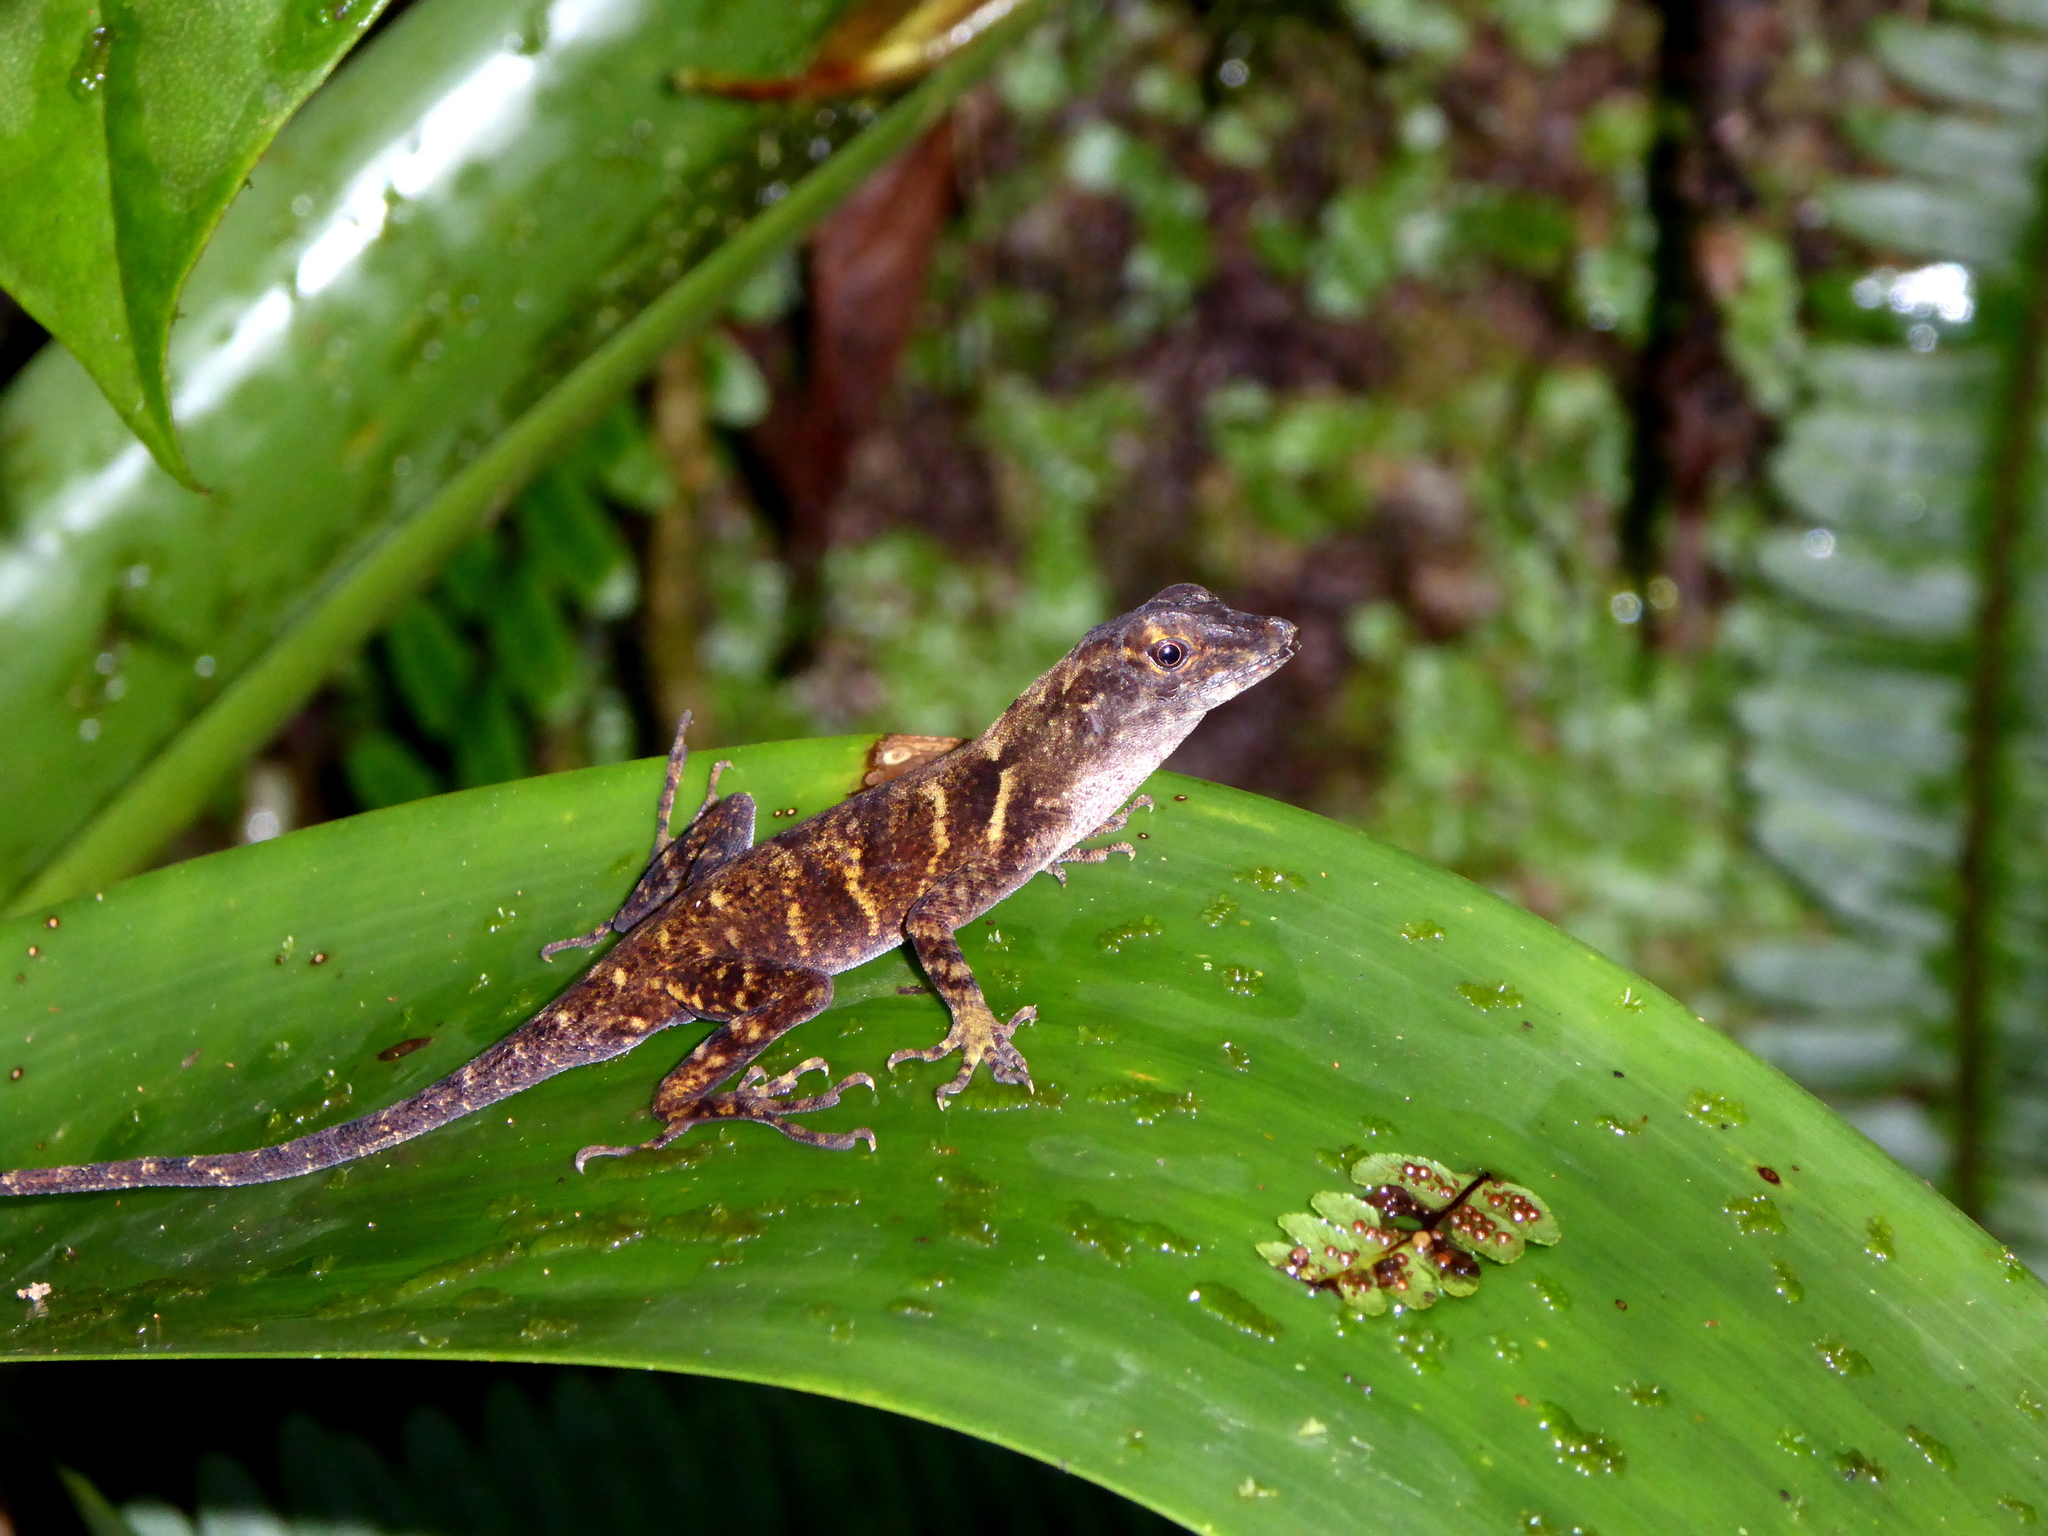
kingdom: Animalia
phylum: Chordata
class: Squamata
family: Dactyloidae
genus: Anolis
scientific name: Anolis cobanensis
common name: Coban anole
